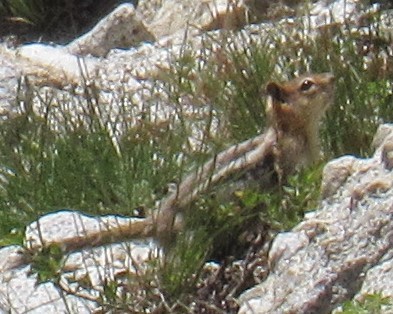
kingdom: Animalia
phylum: Chordata
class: Mammalia
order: Rodentia
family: Sciuridae
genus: Callospermophilus
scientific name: Callospermophilus lateralis
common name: Golden-mantled ground squirrel
